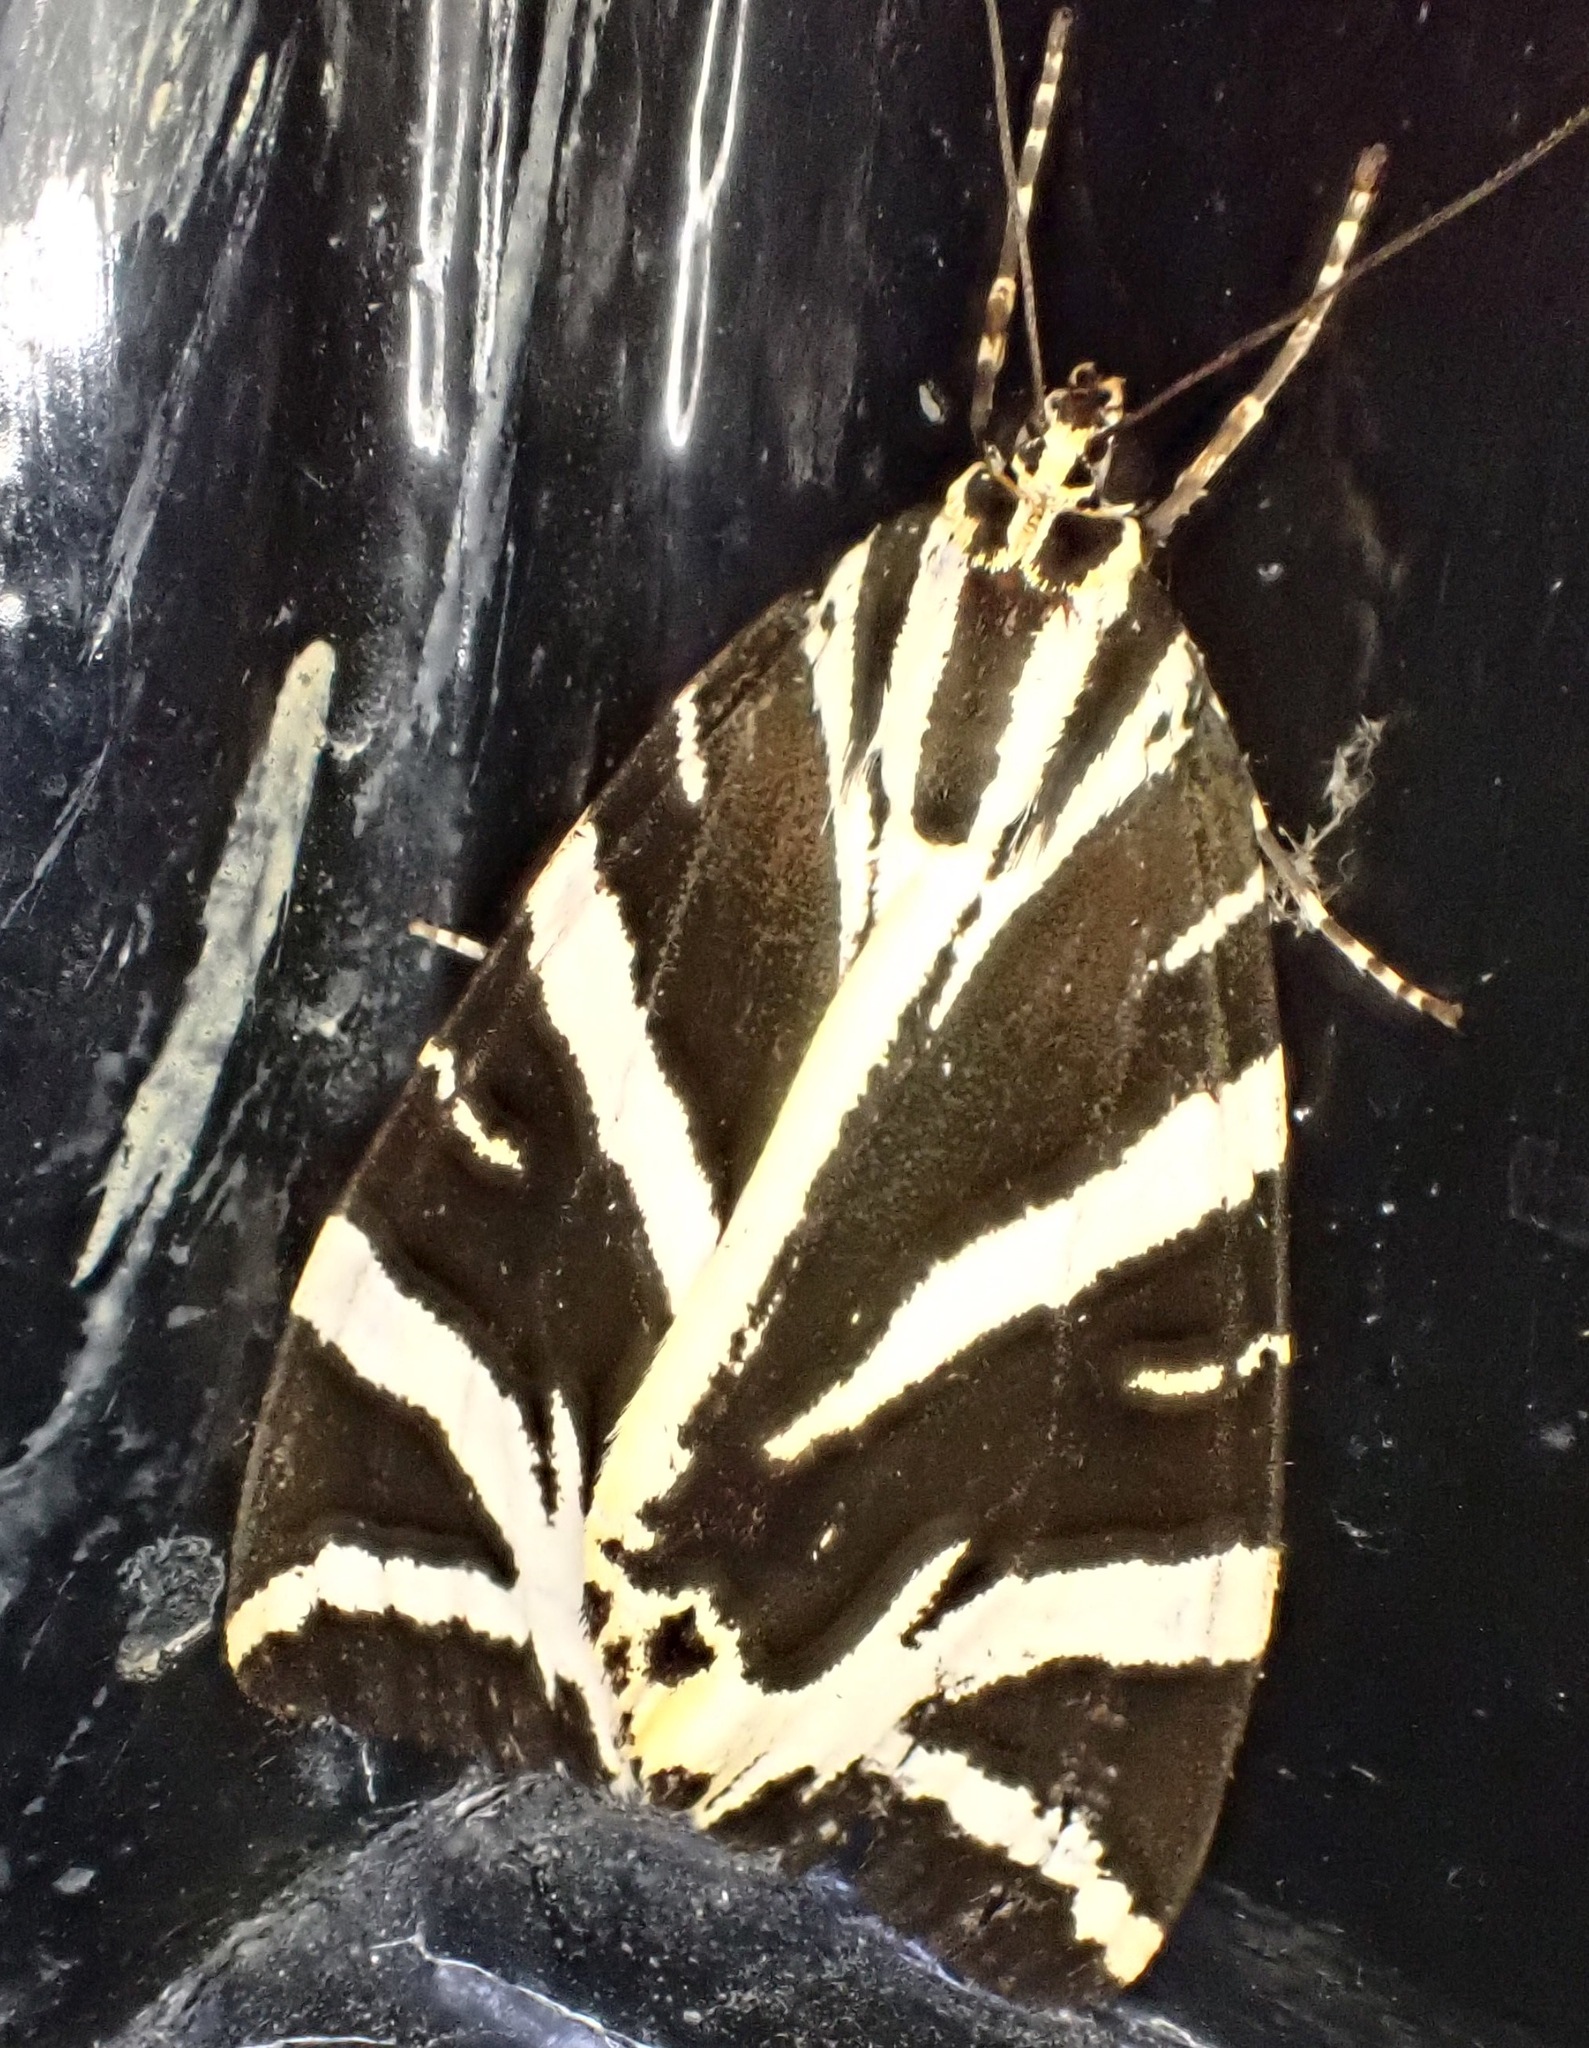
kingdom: Animalia
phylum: Arthropoda
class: Insecta
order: Lepidoptera
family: Erebidae
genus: Euplagia
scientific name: Euplagia quadripunctaria
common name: Jersey tiger
